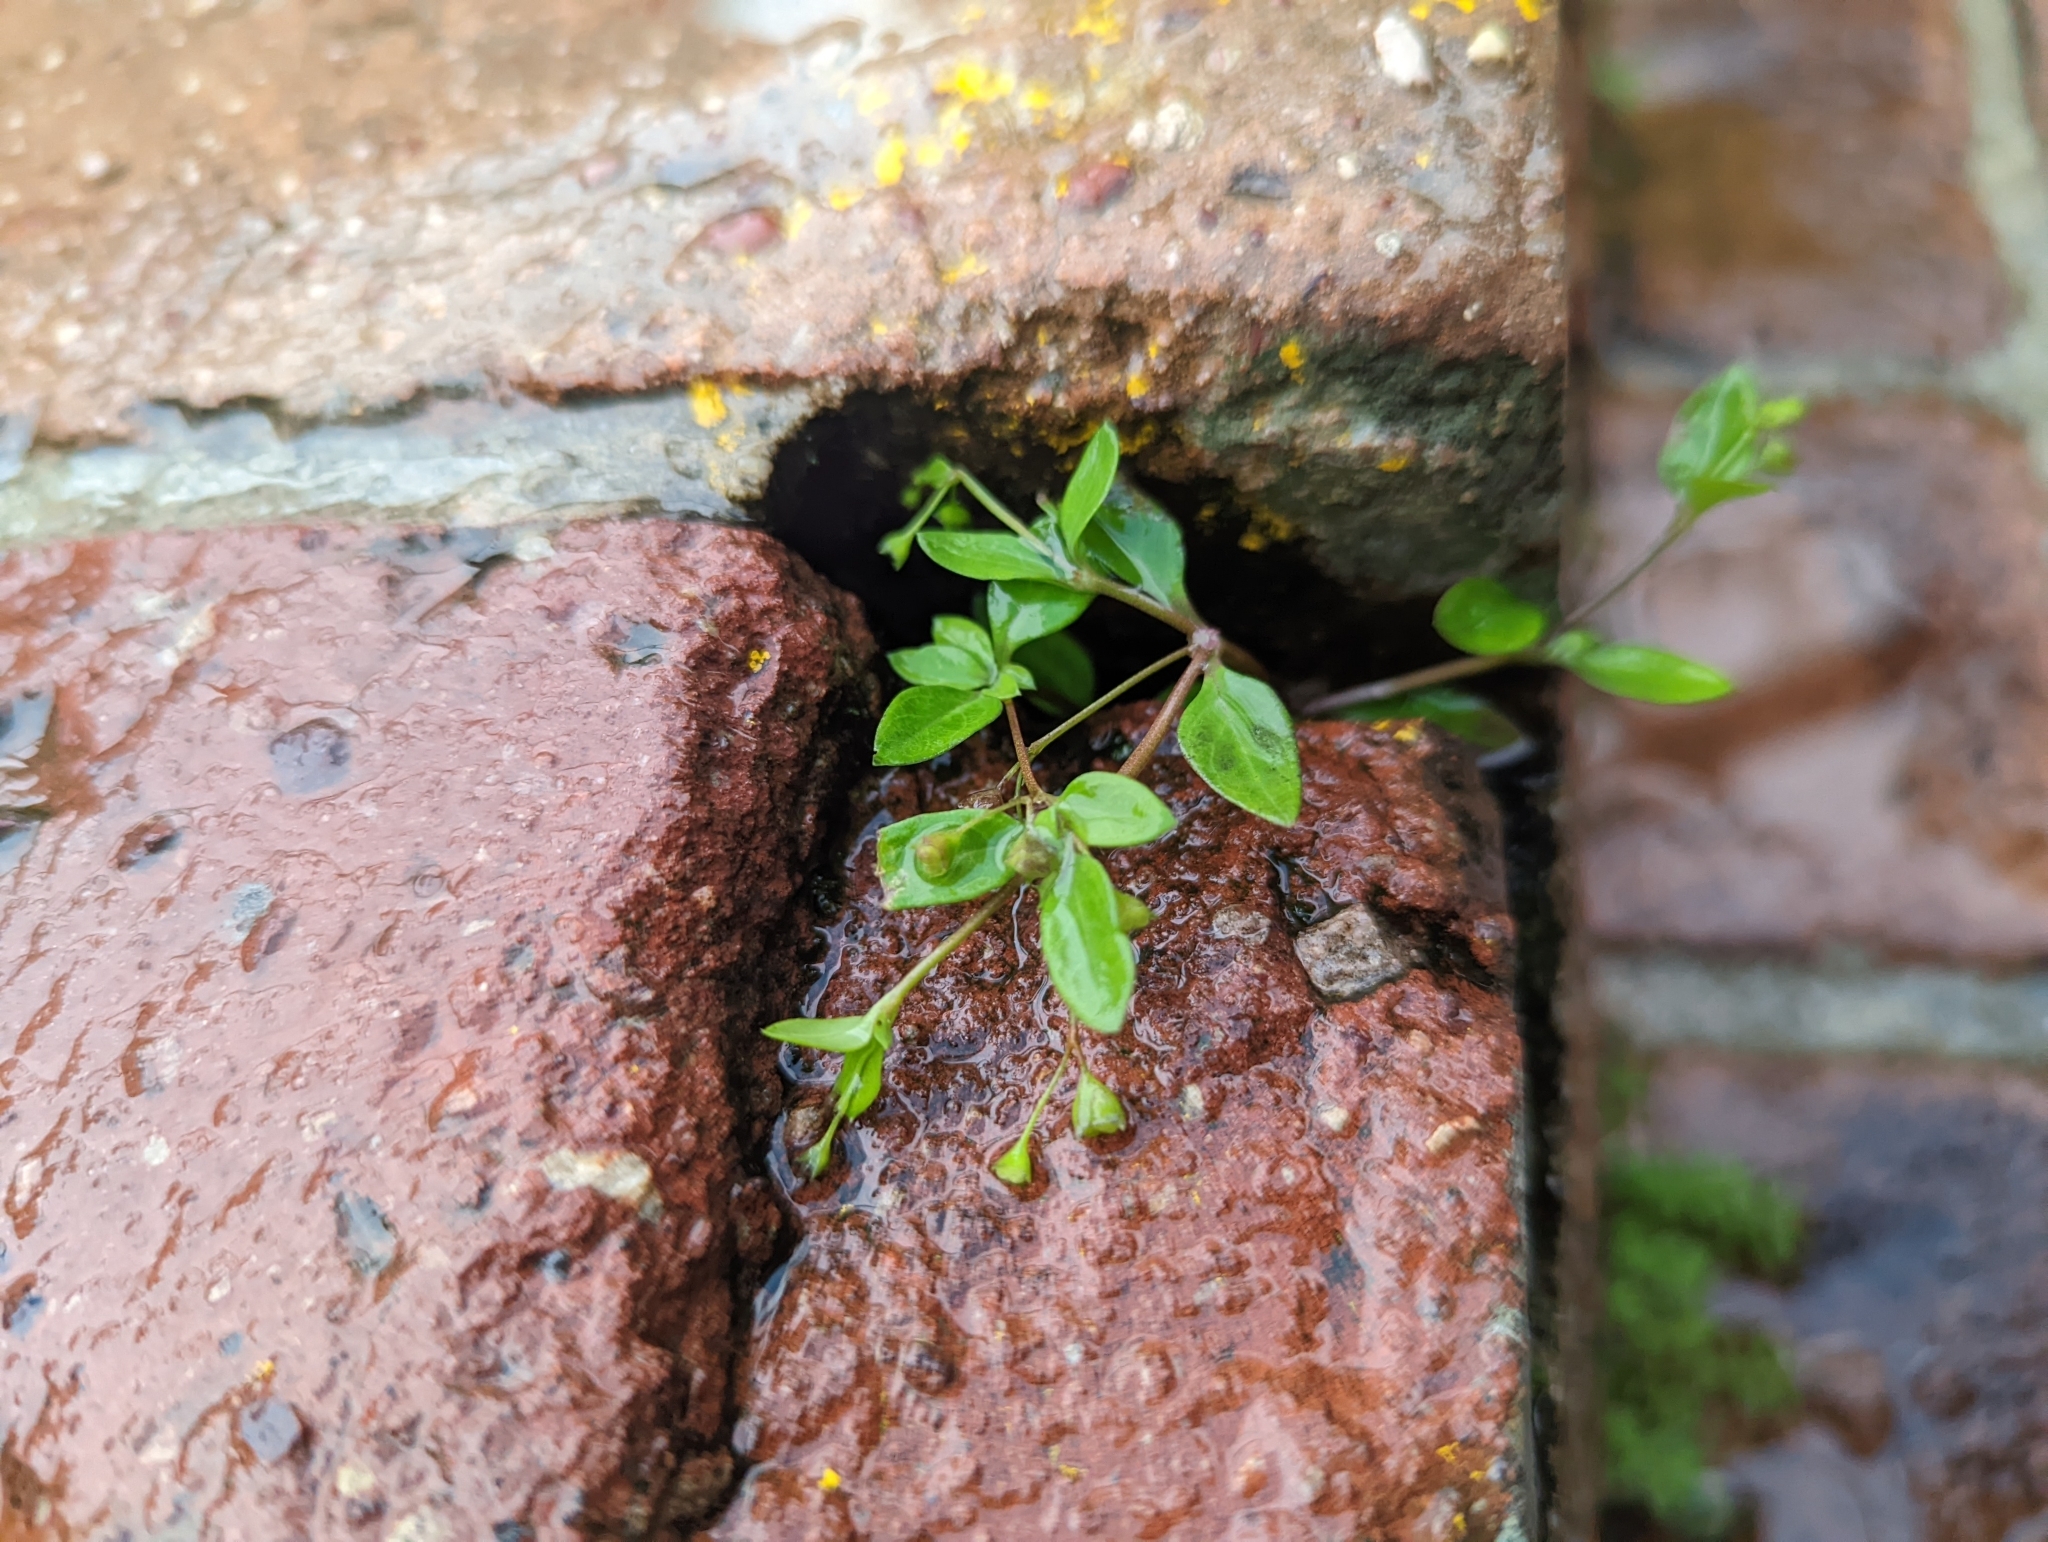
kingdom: Plantae
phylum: Tracheophyta
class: Magnoliopsida
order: Gentianales
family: Rubiaceae
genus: Leptopetalum
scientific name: Leptopetalum biflorum
